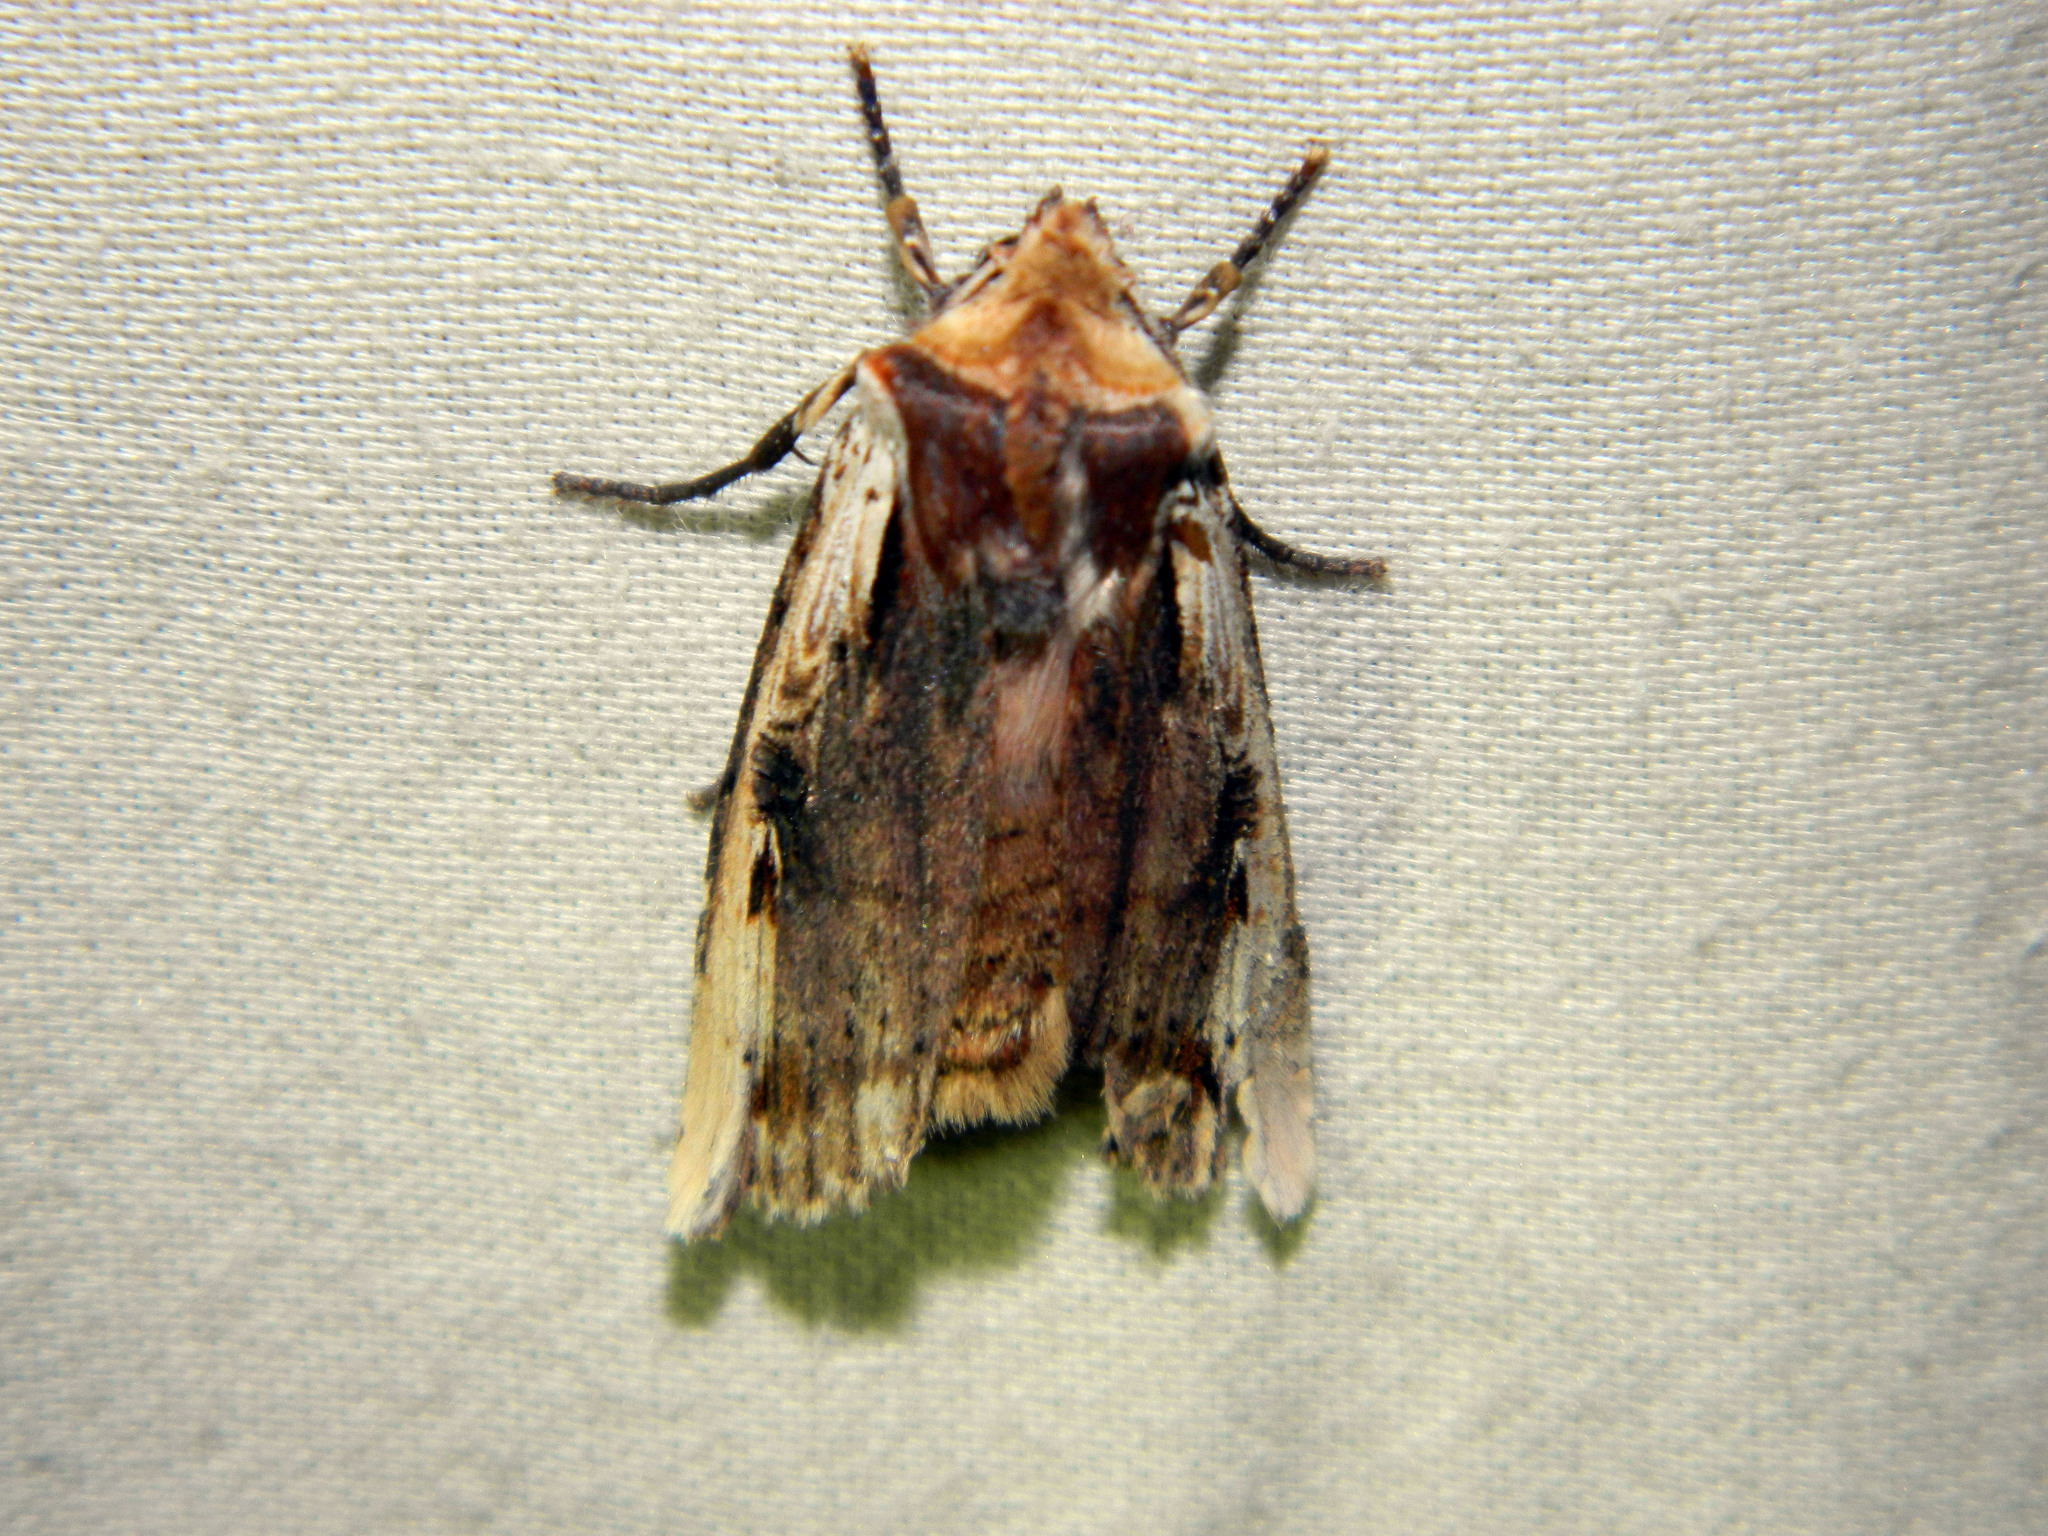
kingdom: Animalia
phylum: Arthropoda
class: Insecta
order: Lepidoptera
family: Noctuidae
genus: Xylena
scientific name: Xylena curvimacula
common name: Dot-and-dash swordgrass moth
